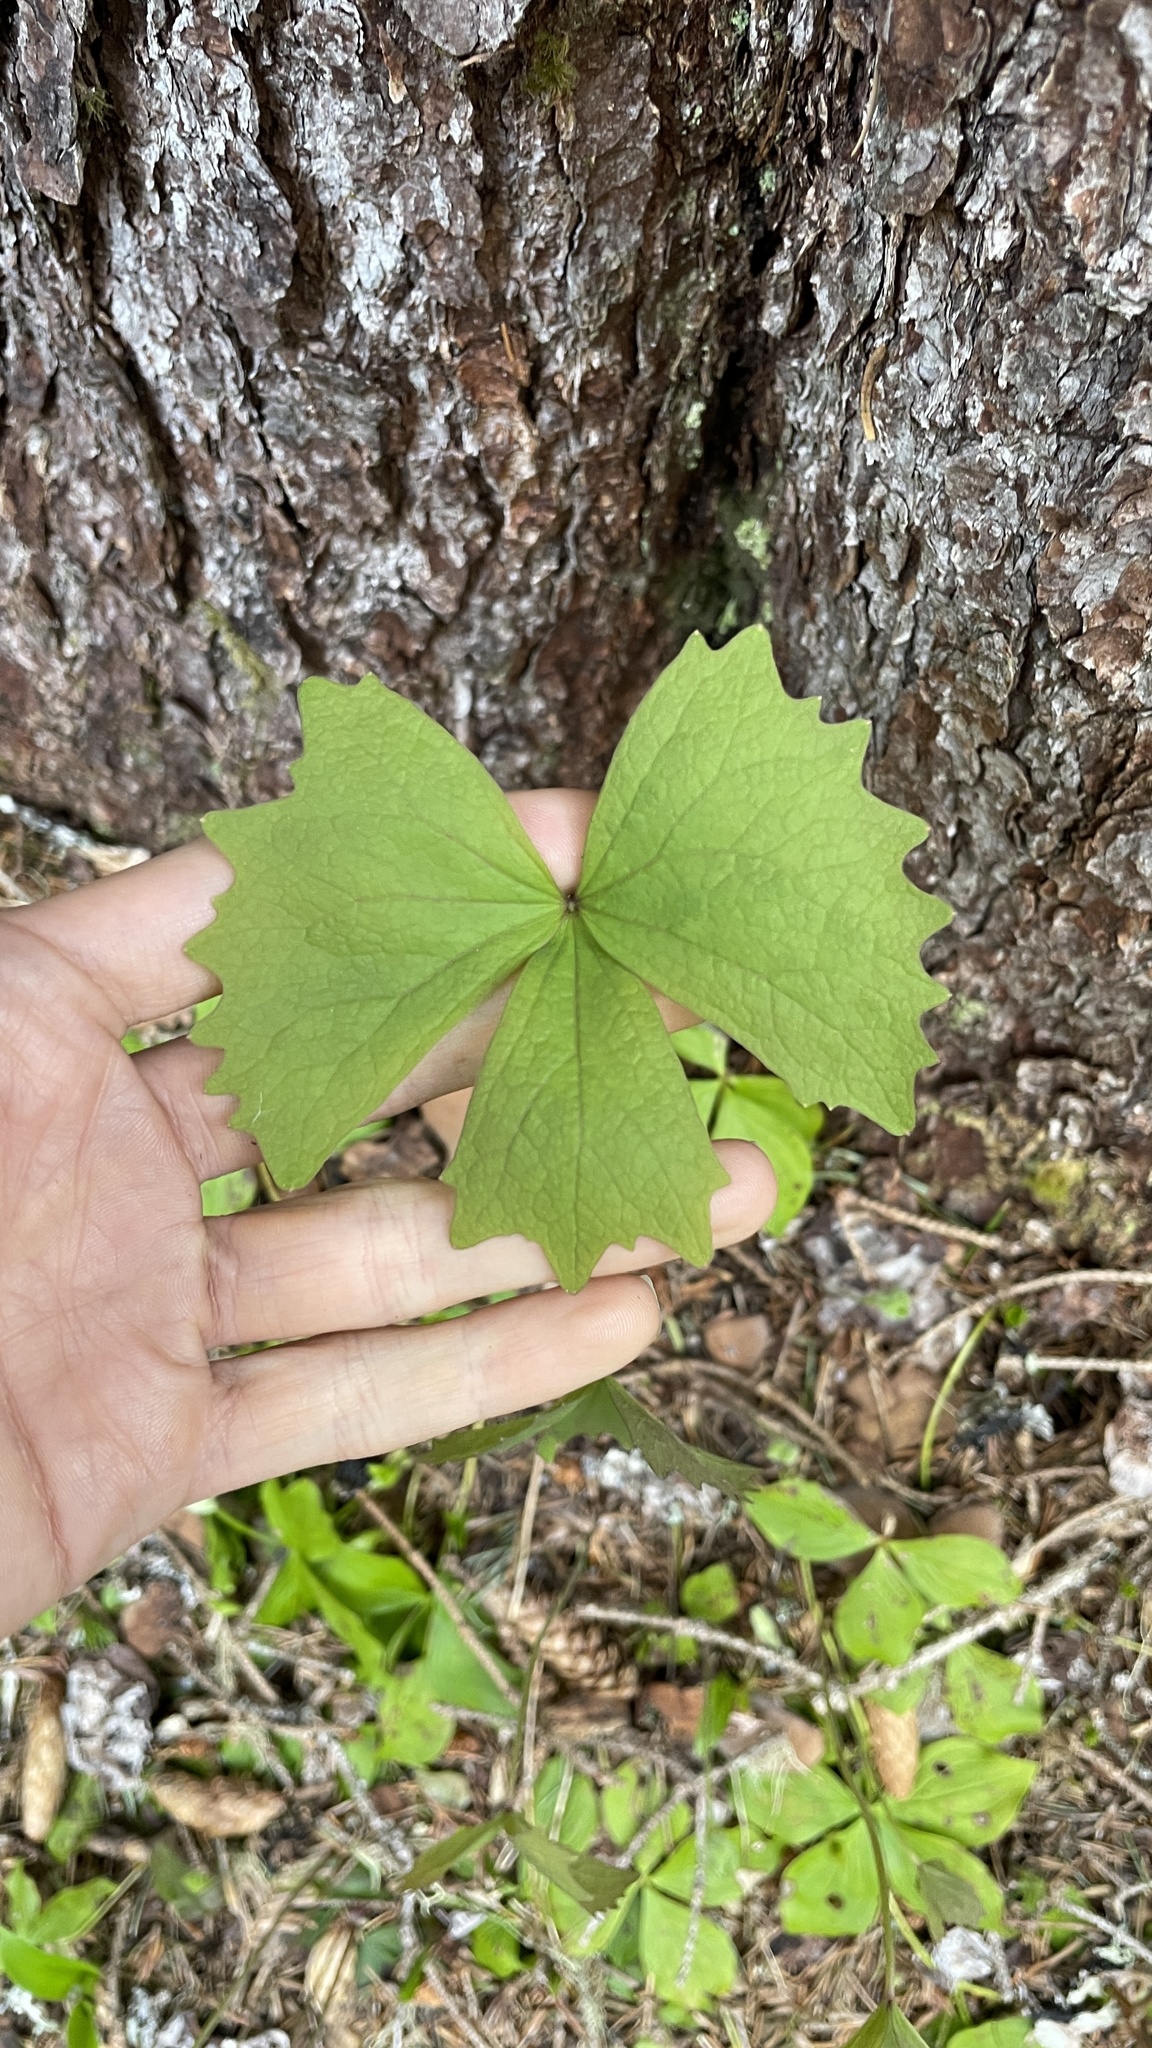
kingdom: Plantae
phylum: Tracheophyta
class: Magnoliopsida
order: Ranunculales
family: Berberidaceae
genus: Achlys
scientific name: Achlys triphylla
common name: Vanilla-leaf
